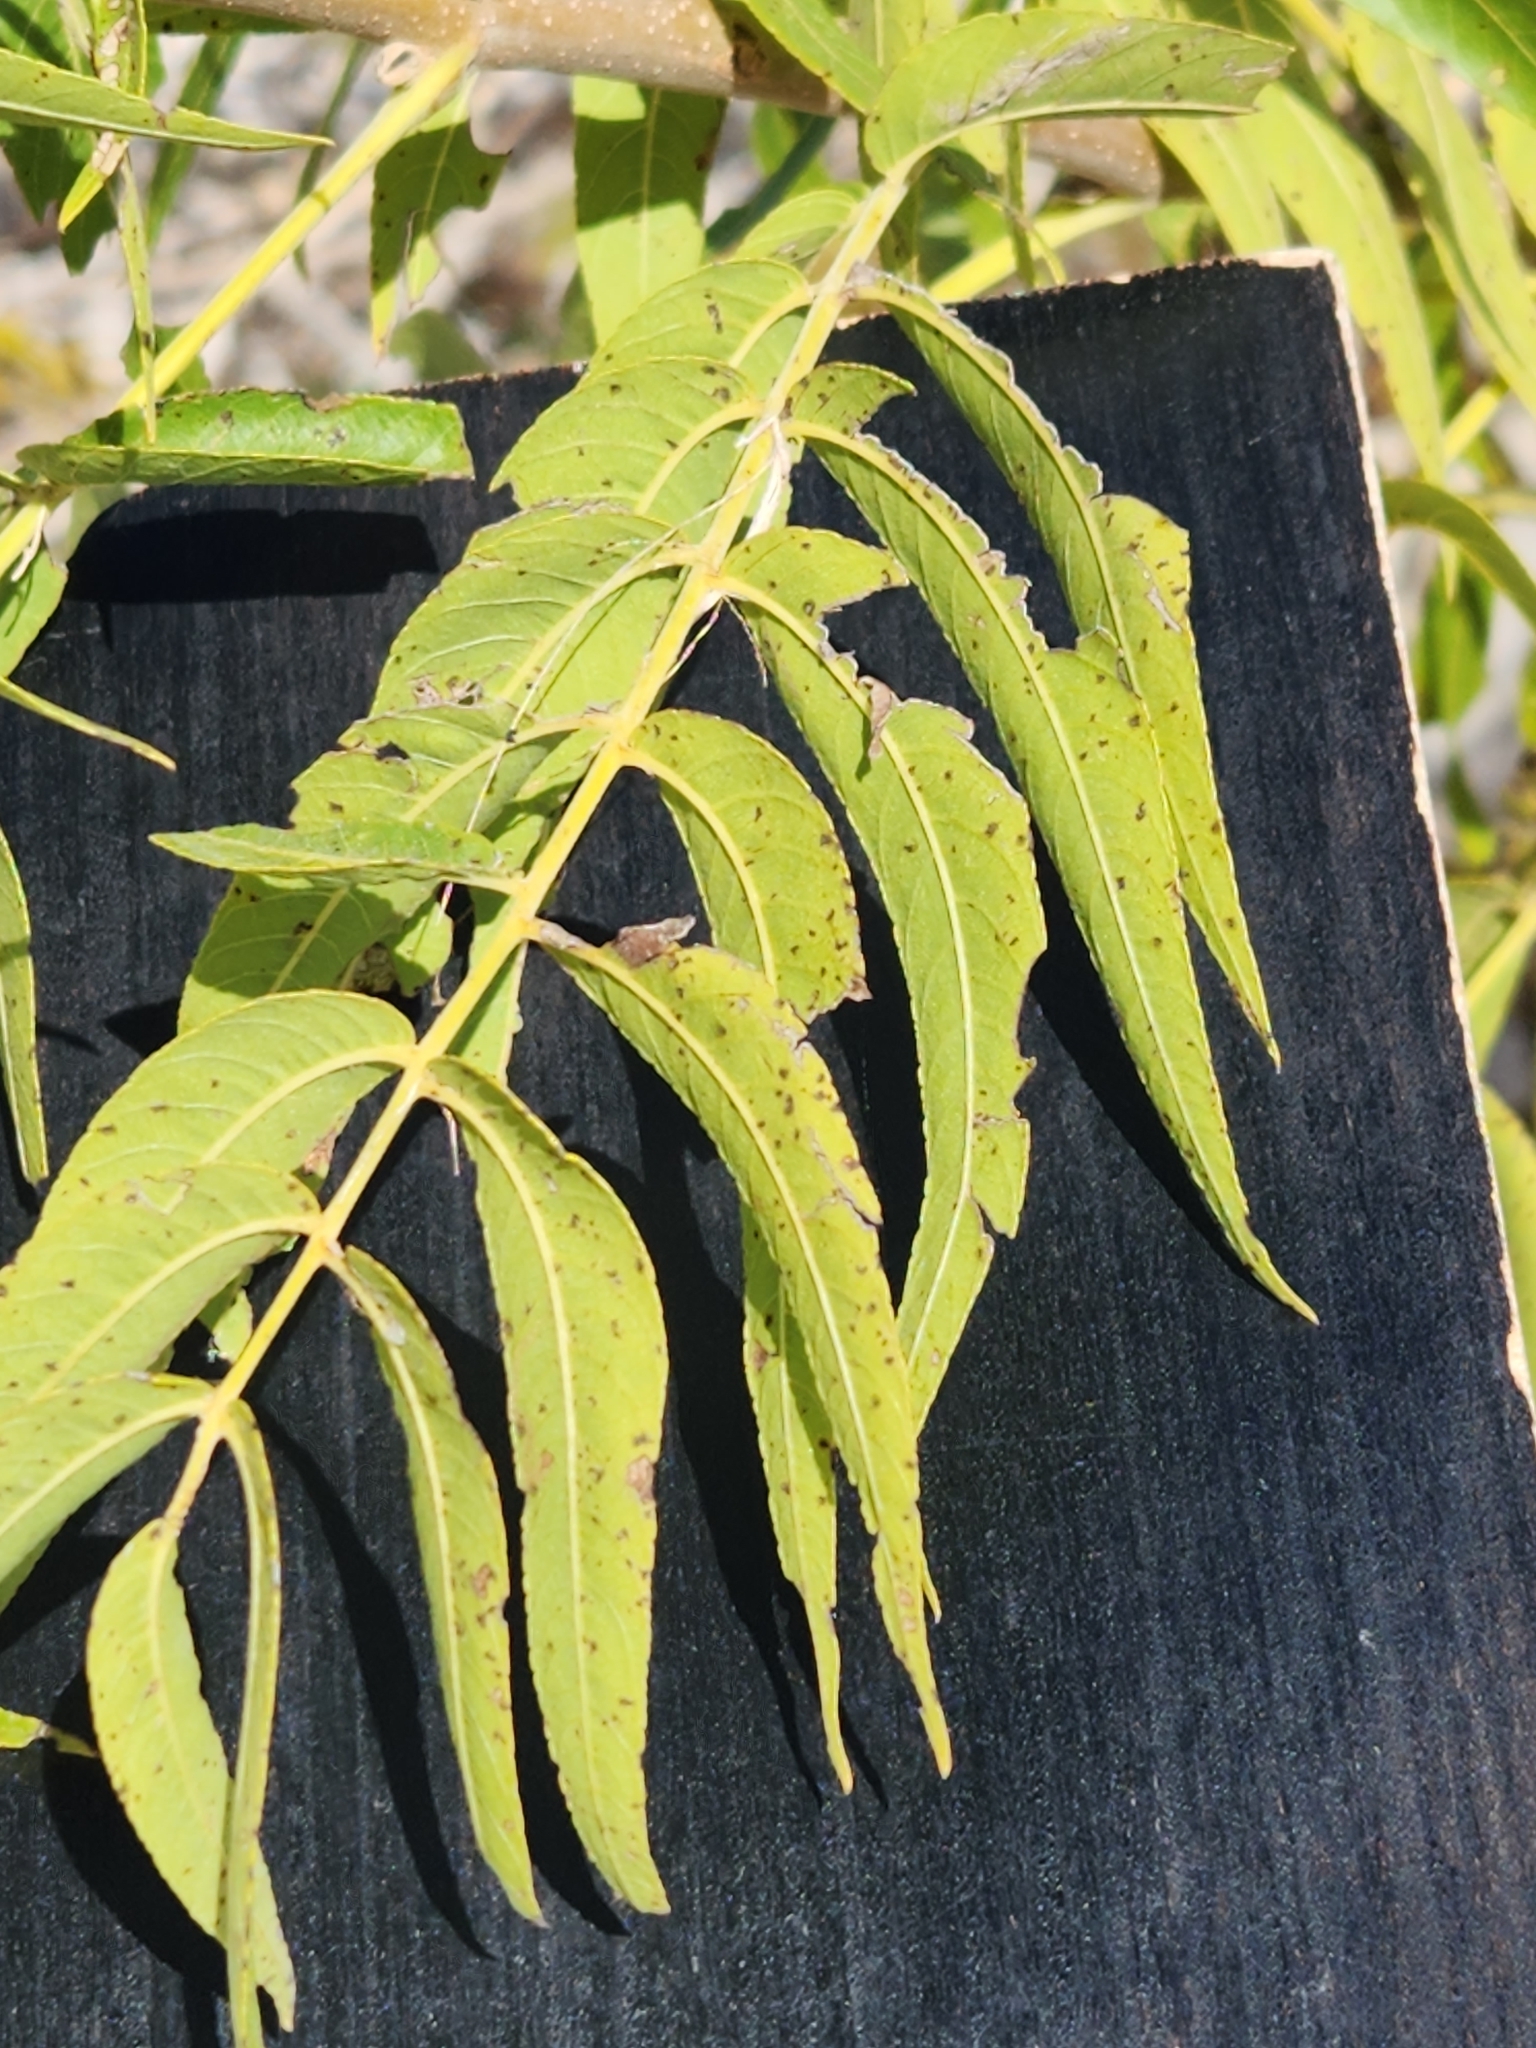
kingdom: Plantae
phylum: Tracheophyta
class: Magnoliopsida
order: Fagales
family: Juglandaceae
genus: Juglans
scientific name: Juglans microcarpa
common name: Texas walnut
